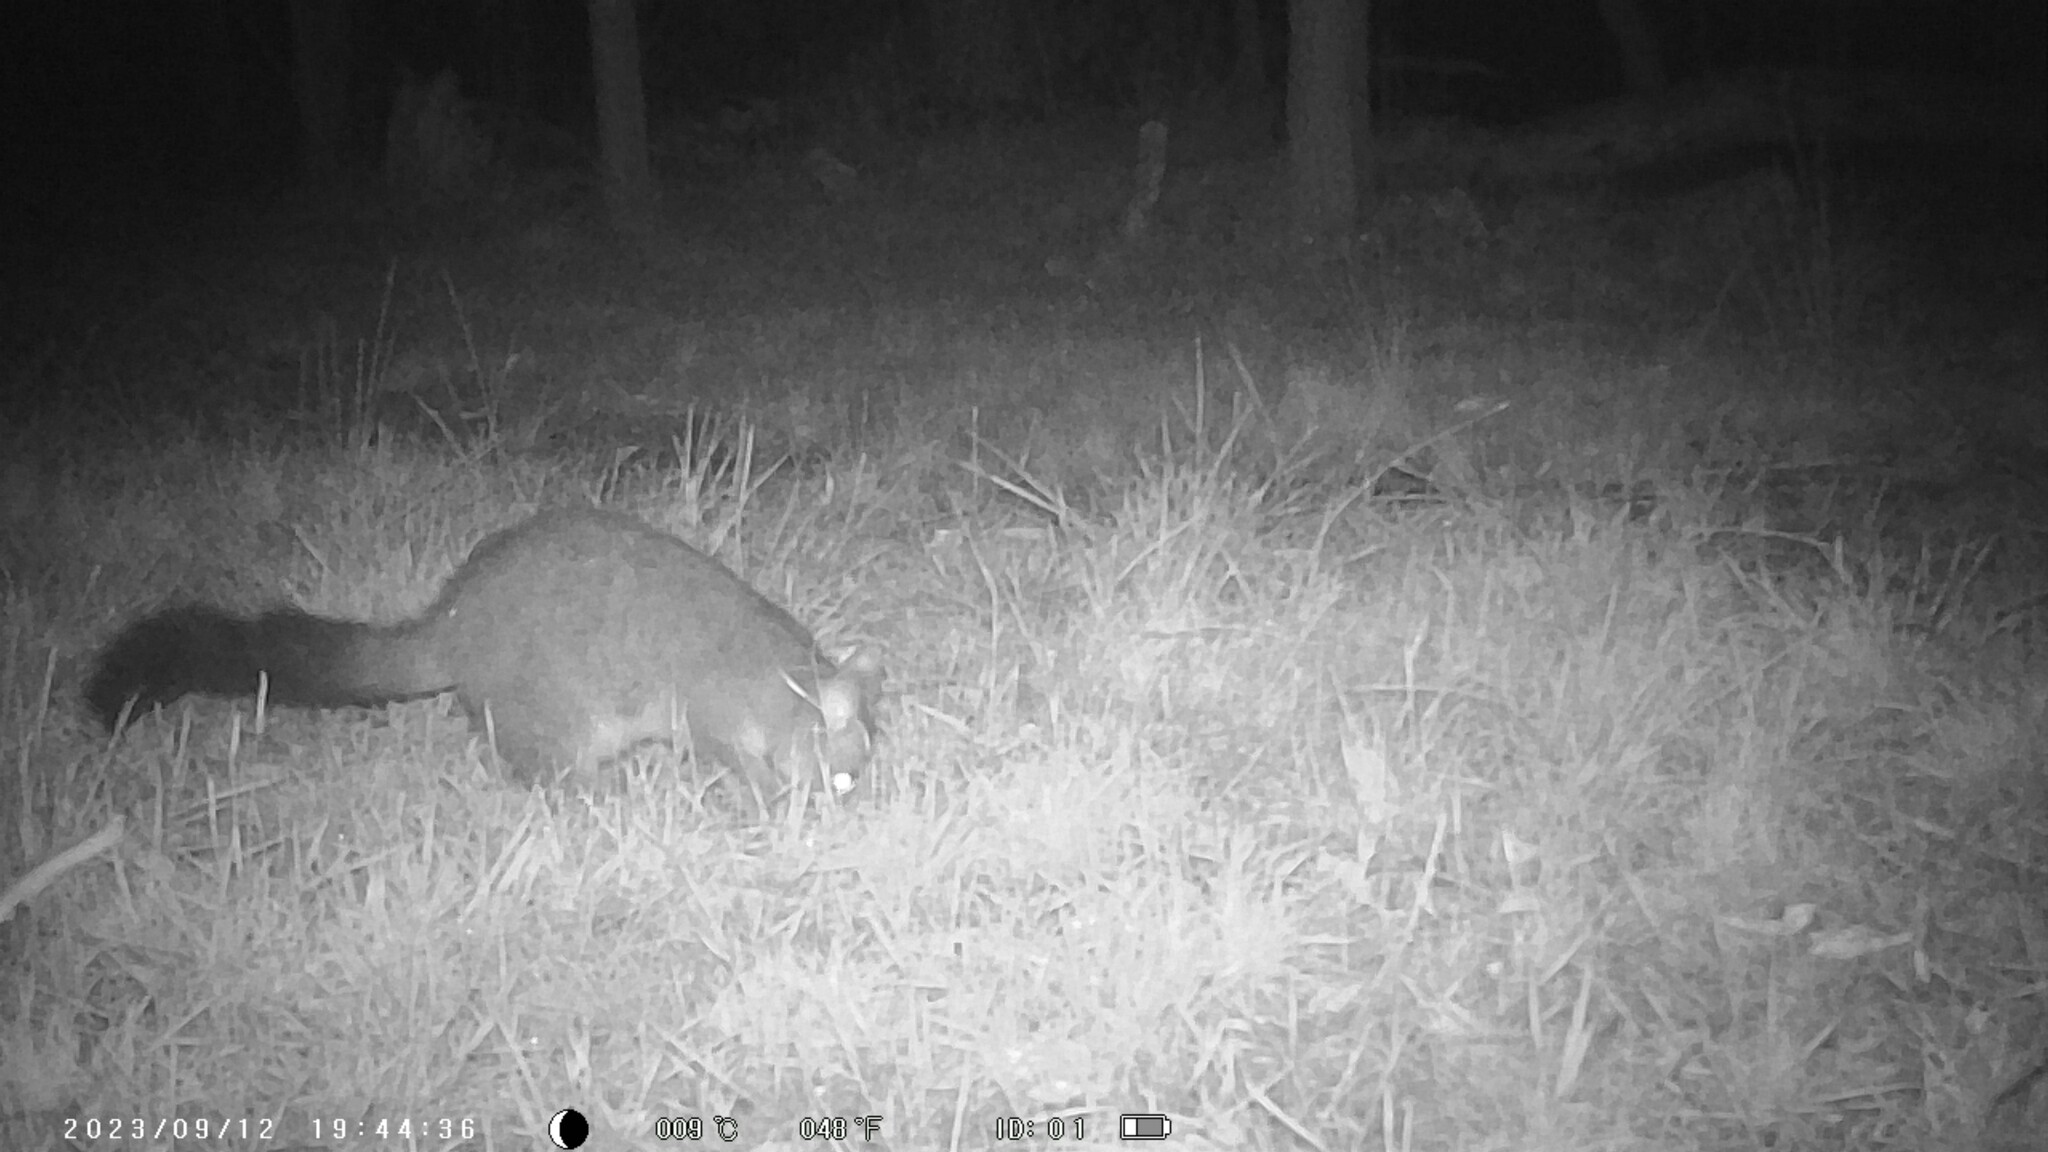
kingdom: Animalia
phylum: Chordata
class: Mammalia
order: Diprotodontia
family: Phalangeridae
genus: Trichosurus
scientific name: Trichosurus vulpecula
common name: Common brushtail
